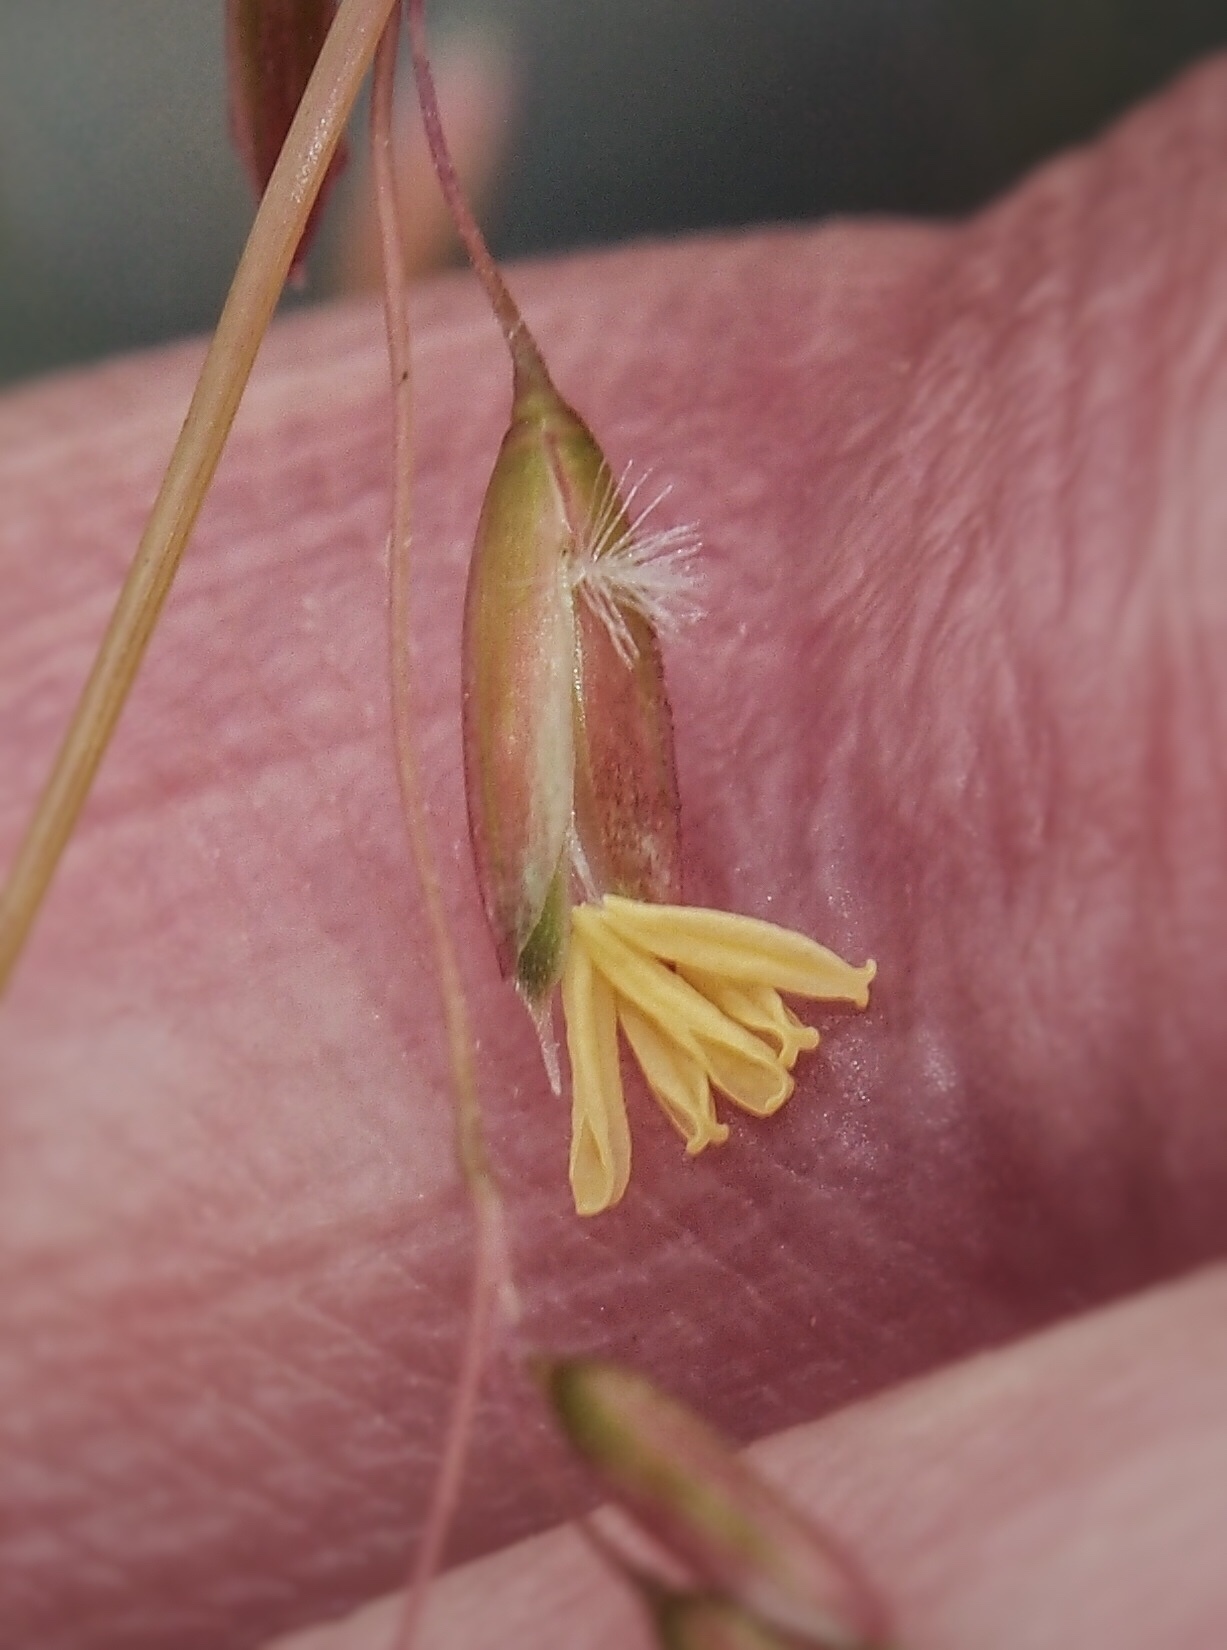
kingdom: Plantae
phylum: Tracheophyta
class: Liliopsida
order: Poales
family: Poaceae
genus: Ehrharta
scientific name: Ehrharta calycina
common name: Perennial veldtgrass
